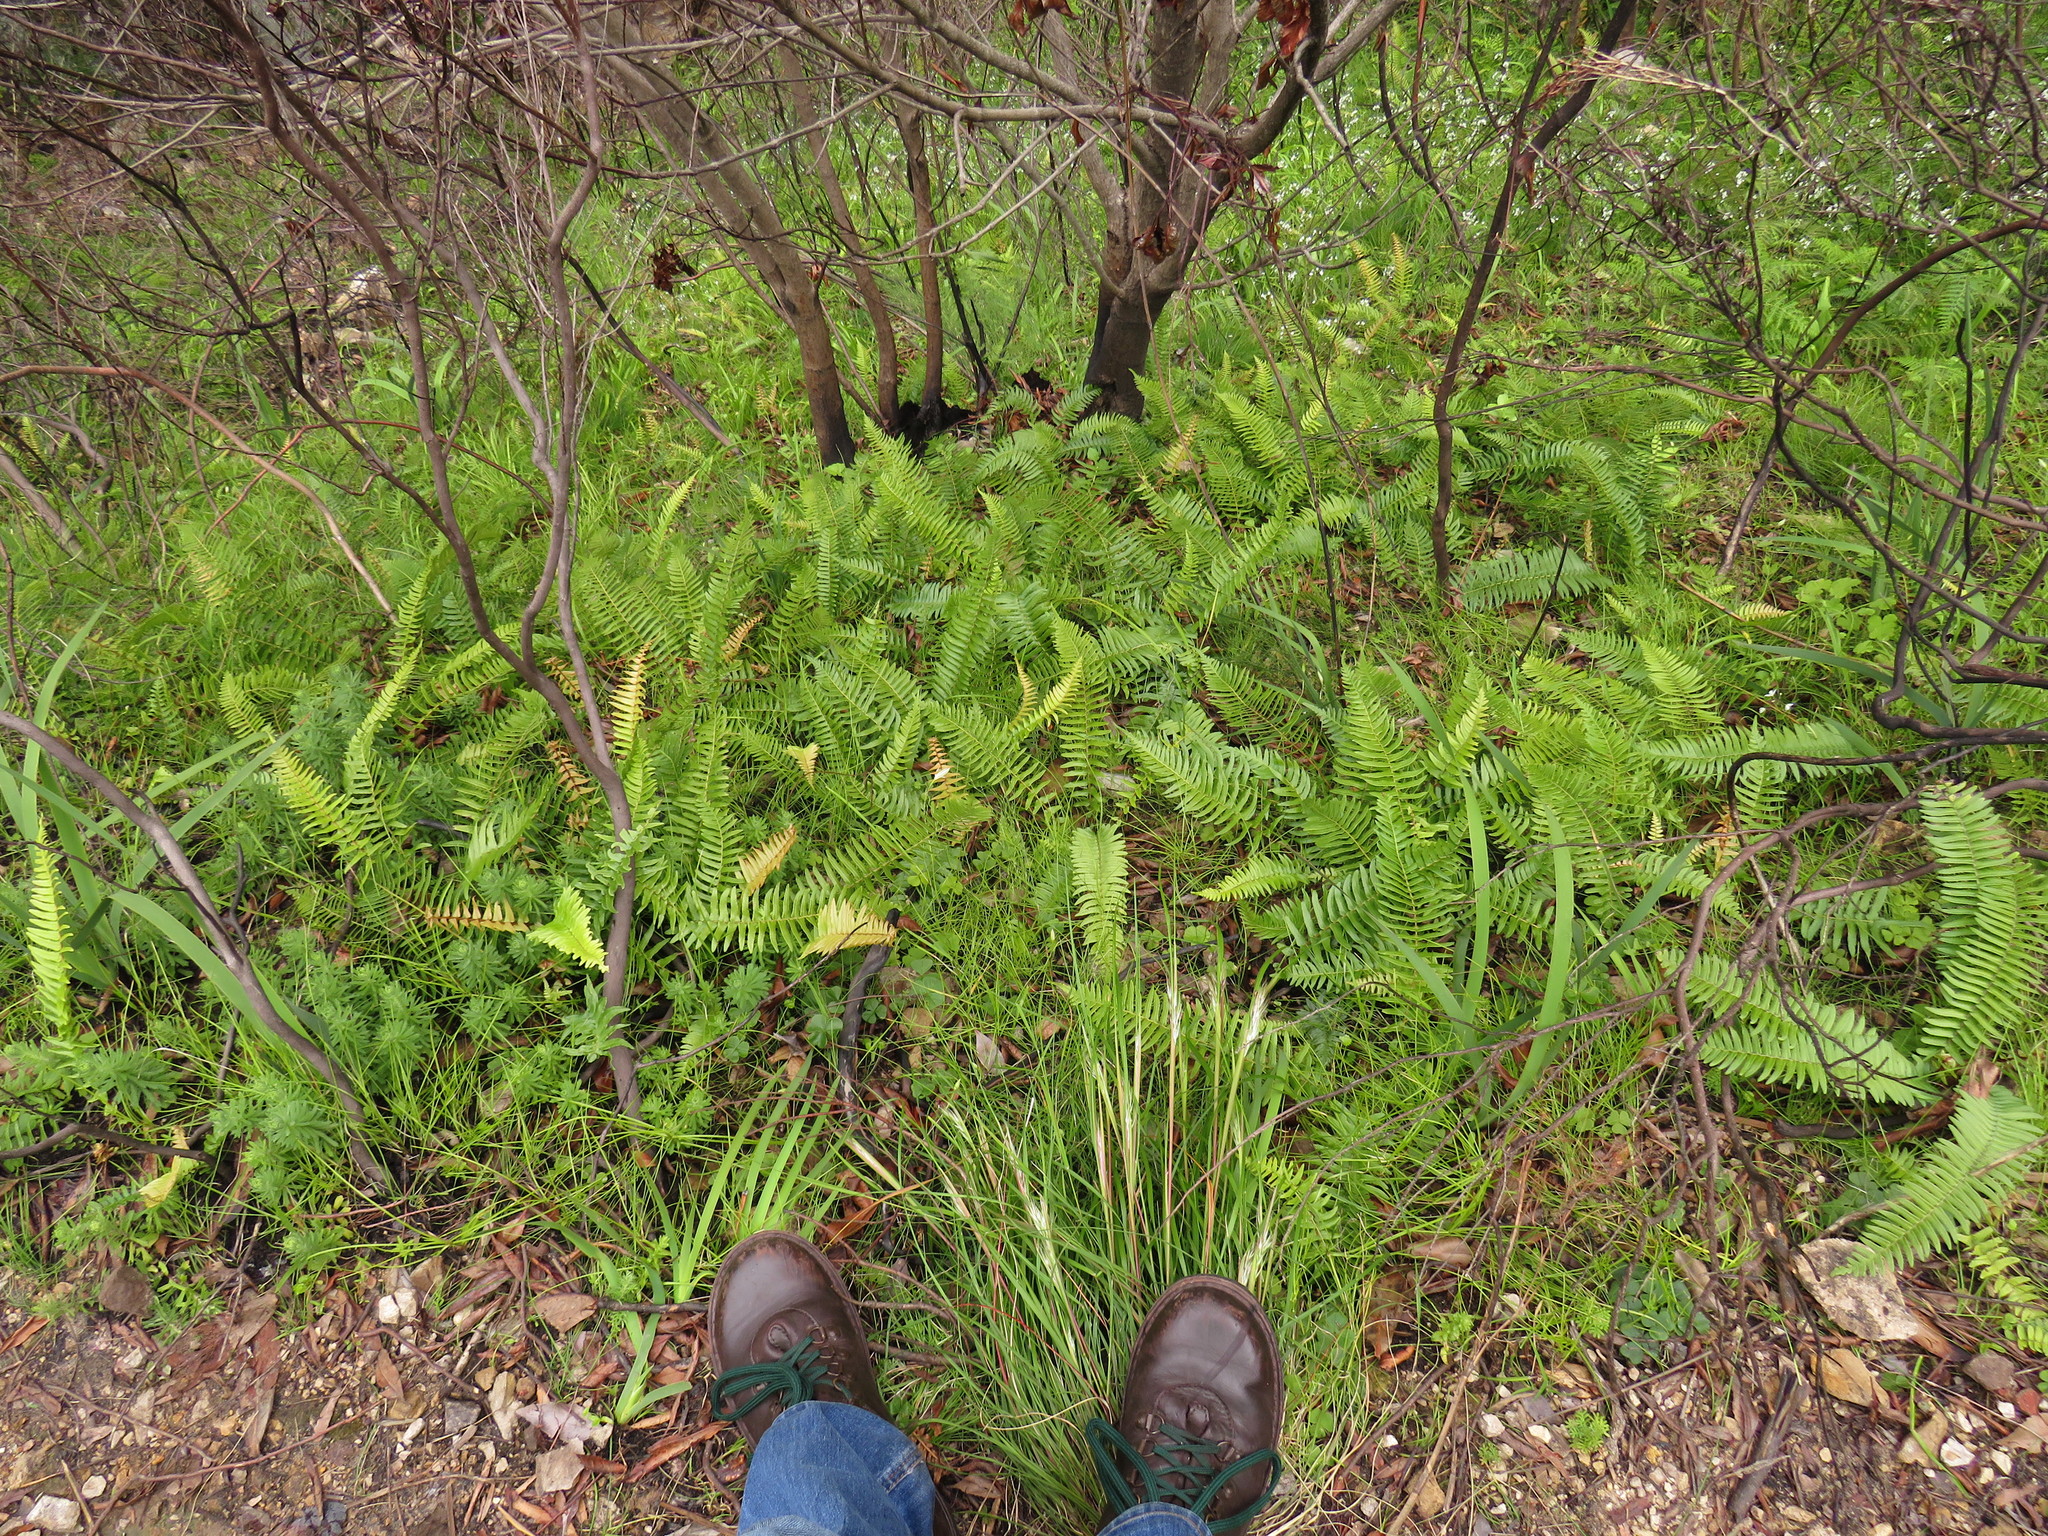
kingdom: Plantae
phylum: Tracheophyta
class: Polypodiopsida
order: Polypodiales
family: Blechnaceae
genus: Blechnum
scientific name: Blechnum punctulatum
